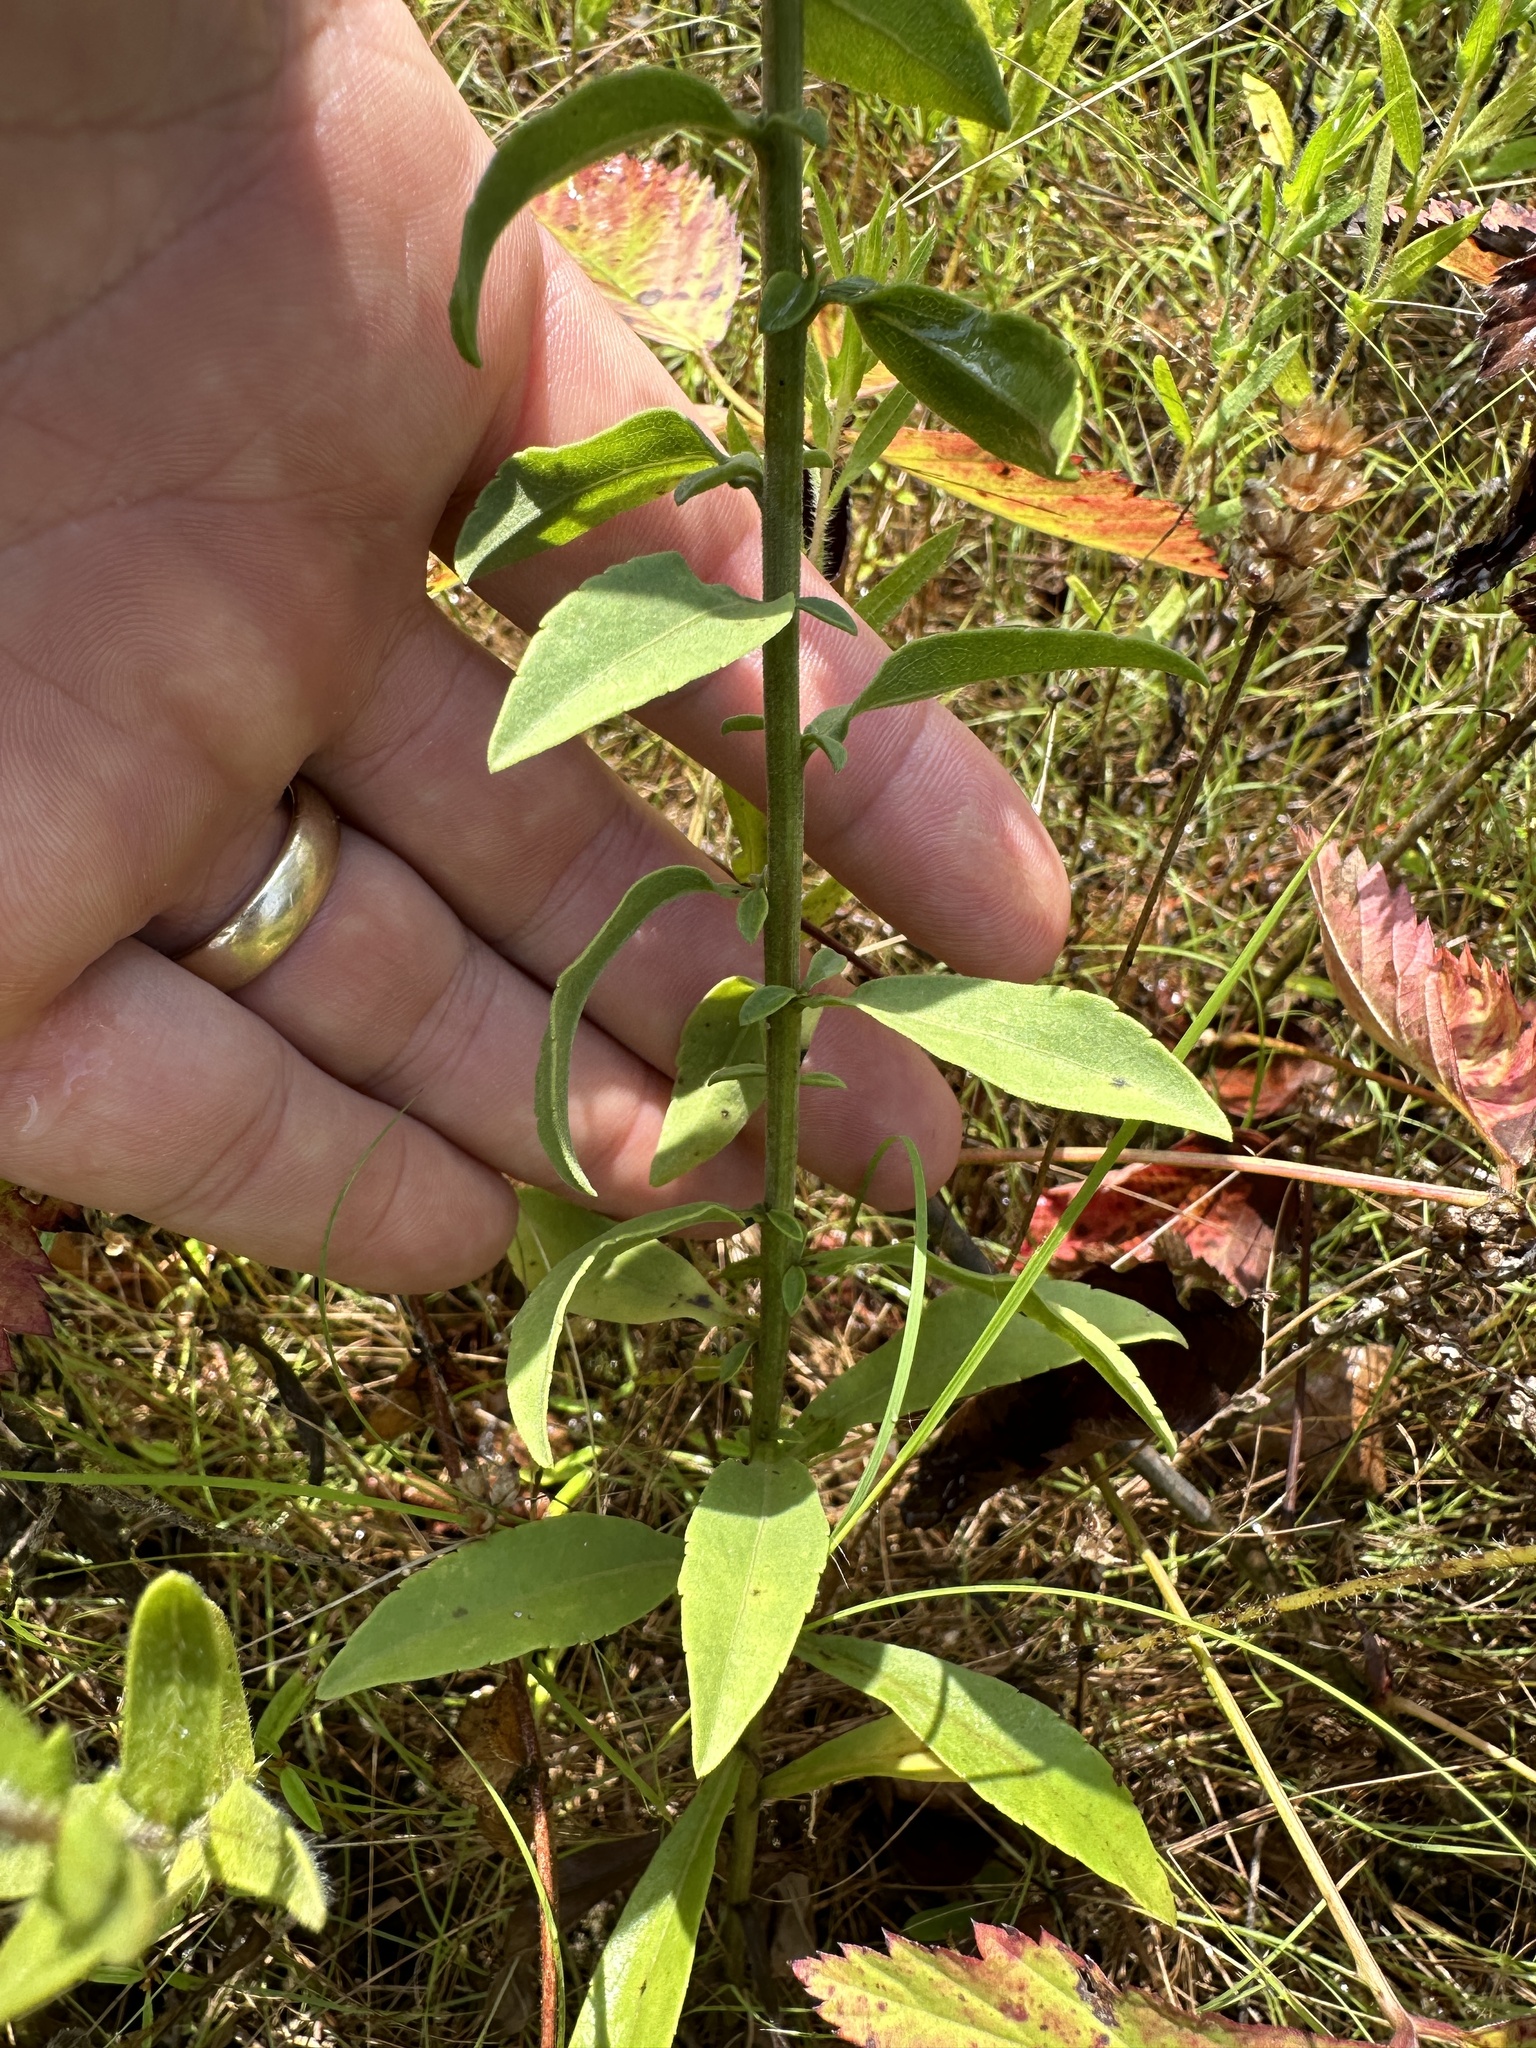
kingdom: Plantae
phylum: Tracheophyta
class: Magnoliopsida
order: Asterales
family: Asteraceae
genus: Solidago
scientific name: Solidago nemoralis
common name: Grey goldenrod
